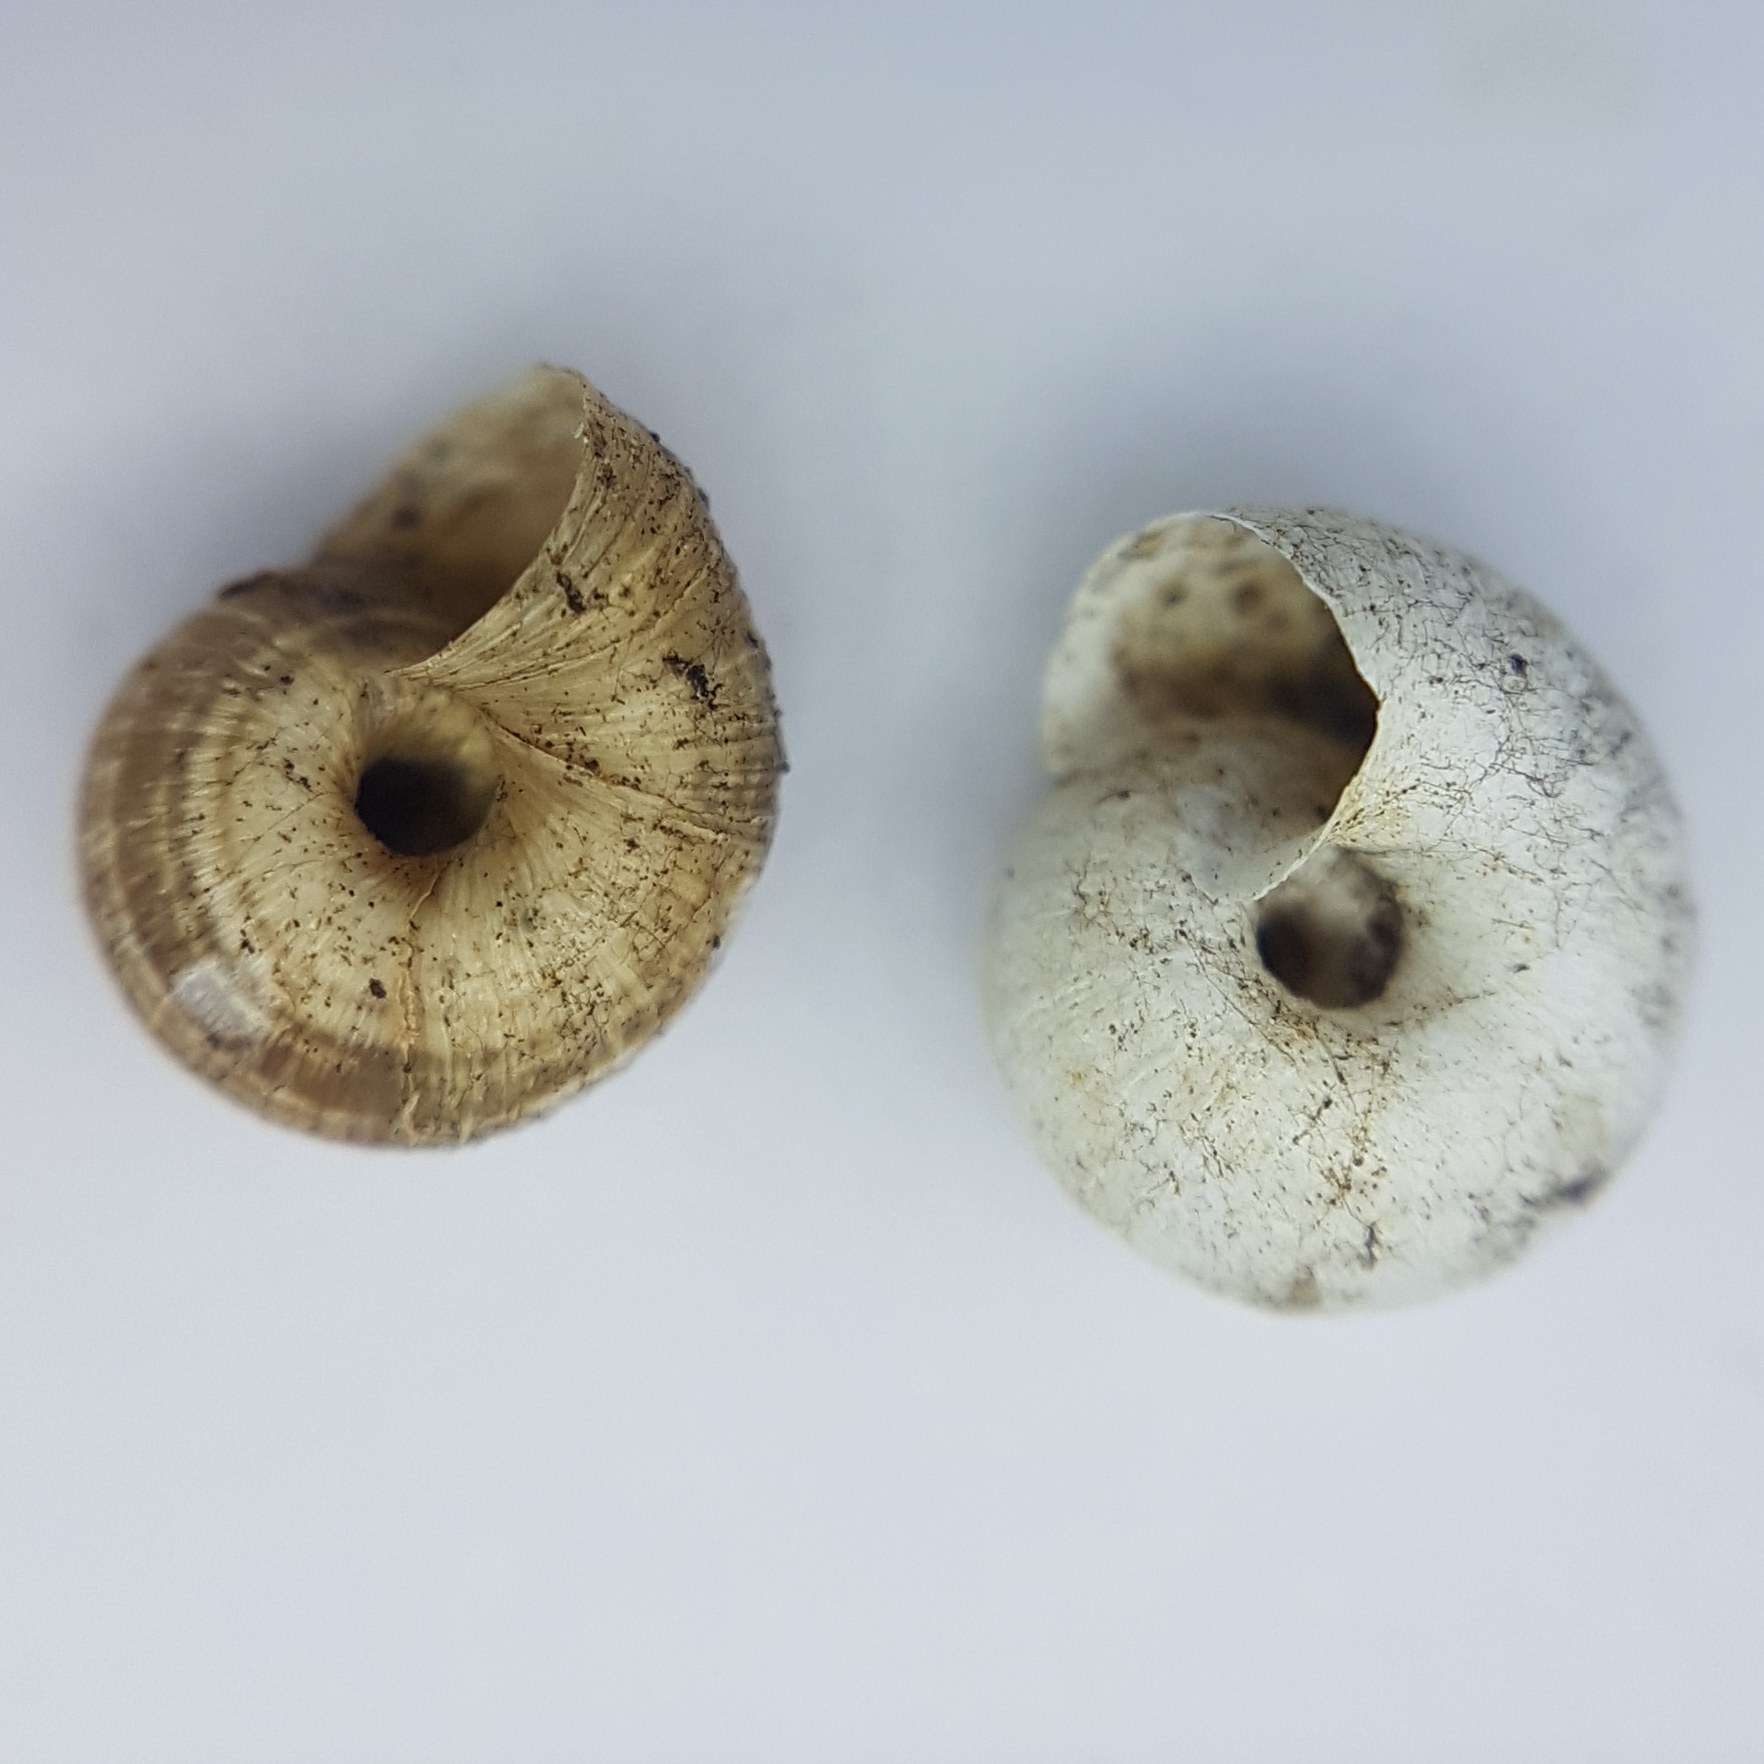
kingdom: Animalia
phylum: Mollusca
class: Gastropoda
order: Stylommatophora
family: Geomitridae
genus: Xerotricha
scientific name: Xerotricha apicina
